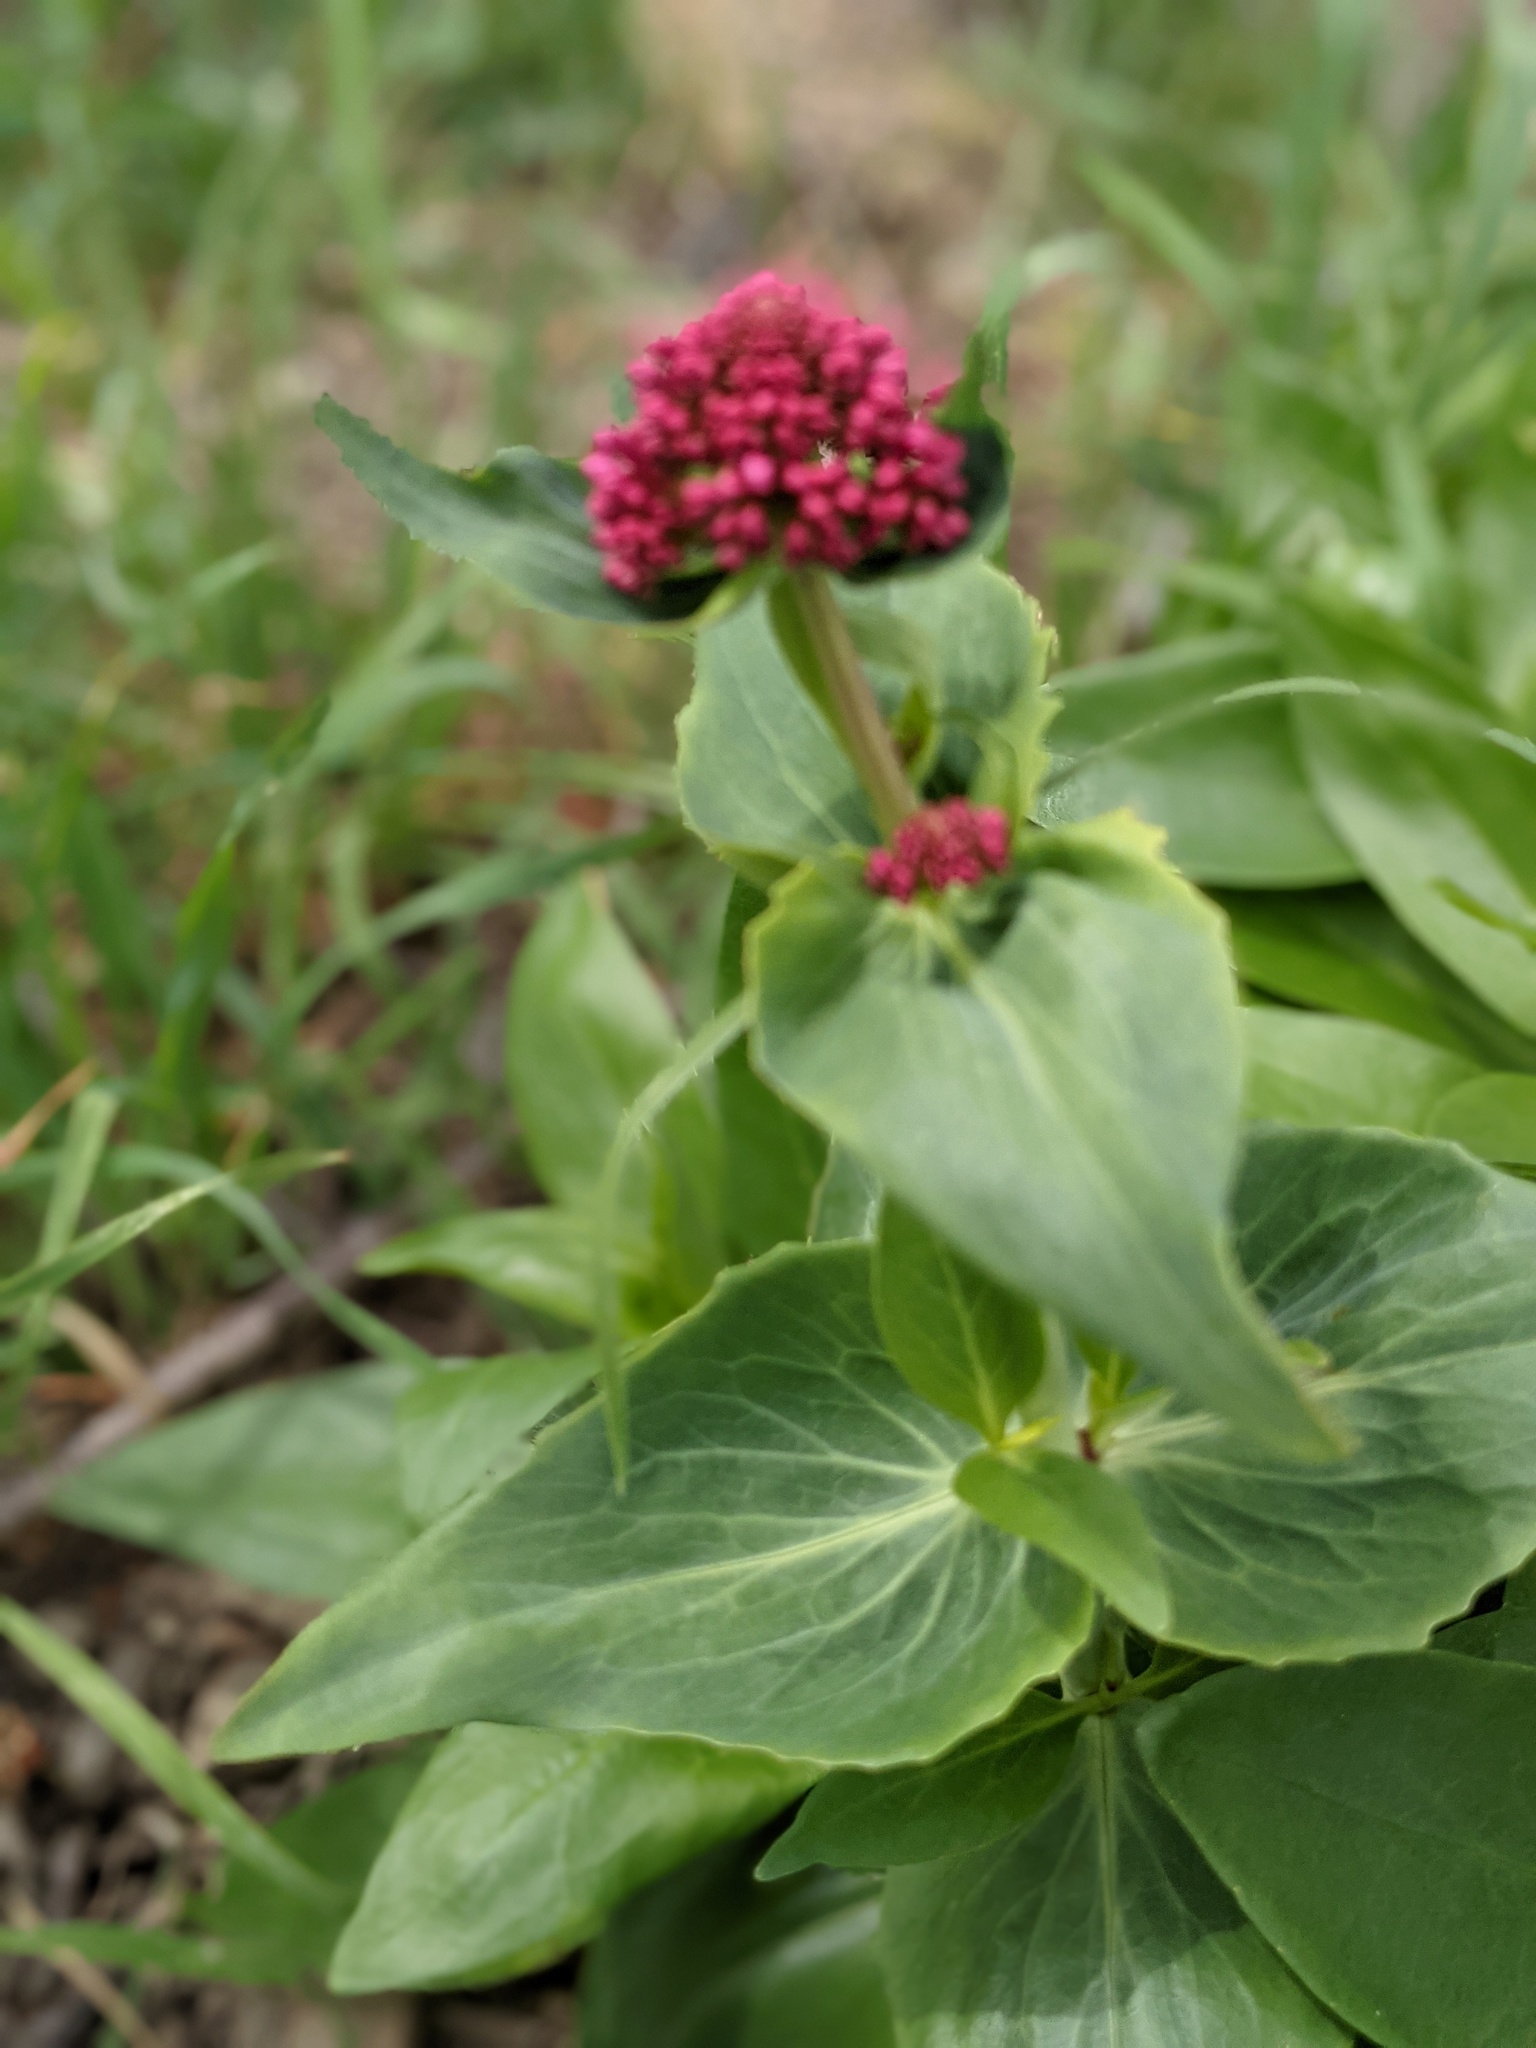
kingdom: Plantae
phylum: Tracheophyta
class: Magnoliopsida
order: Dipsacales
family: Caprifoliaceae
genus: Centranthus
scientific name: Centranthus ruber
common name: Red valerian
